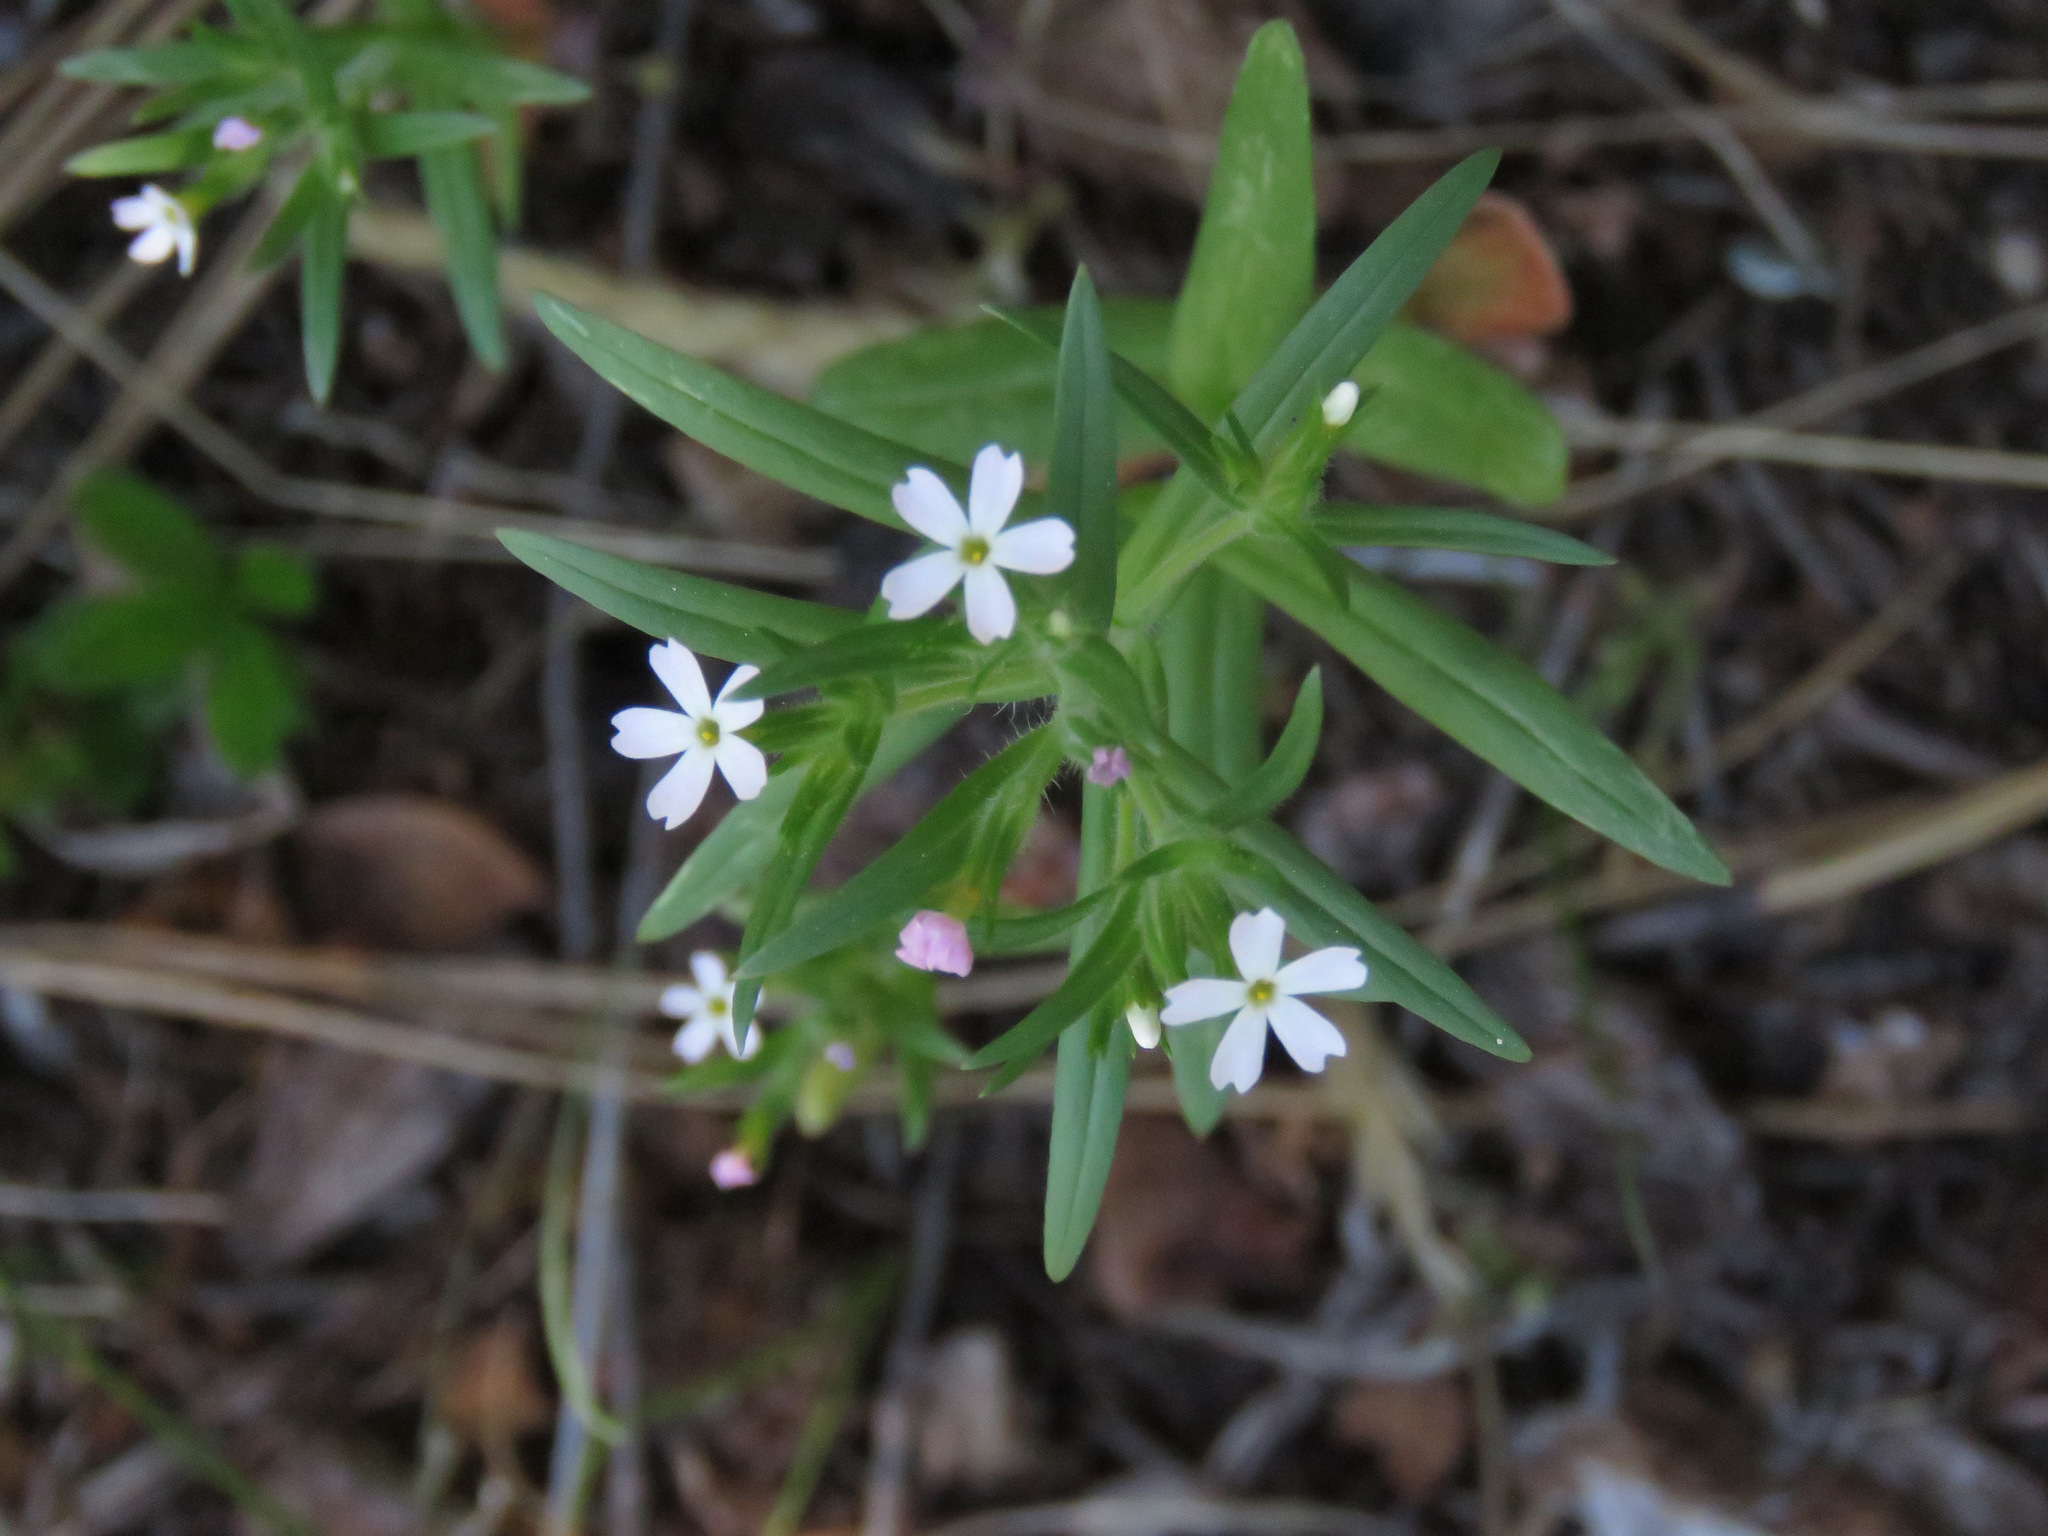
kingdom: Plantae
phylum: Tracheophyta
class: Magnoliopsida
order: Ericales
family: Polemoniaceae
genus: Phlox
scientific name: Phlox gracilis
